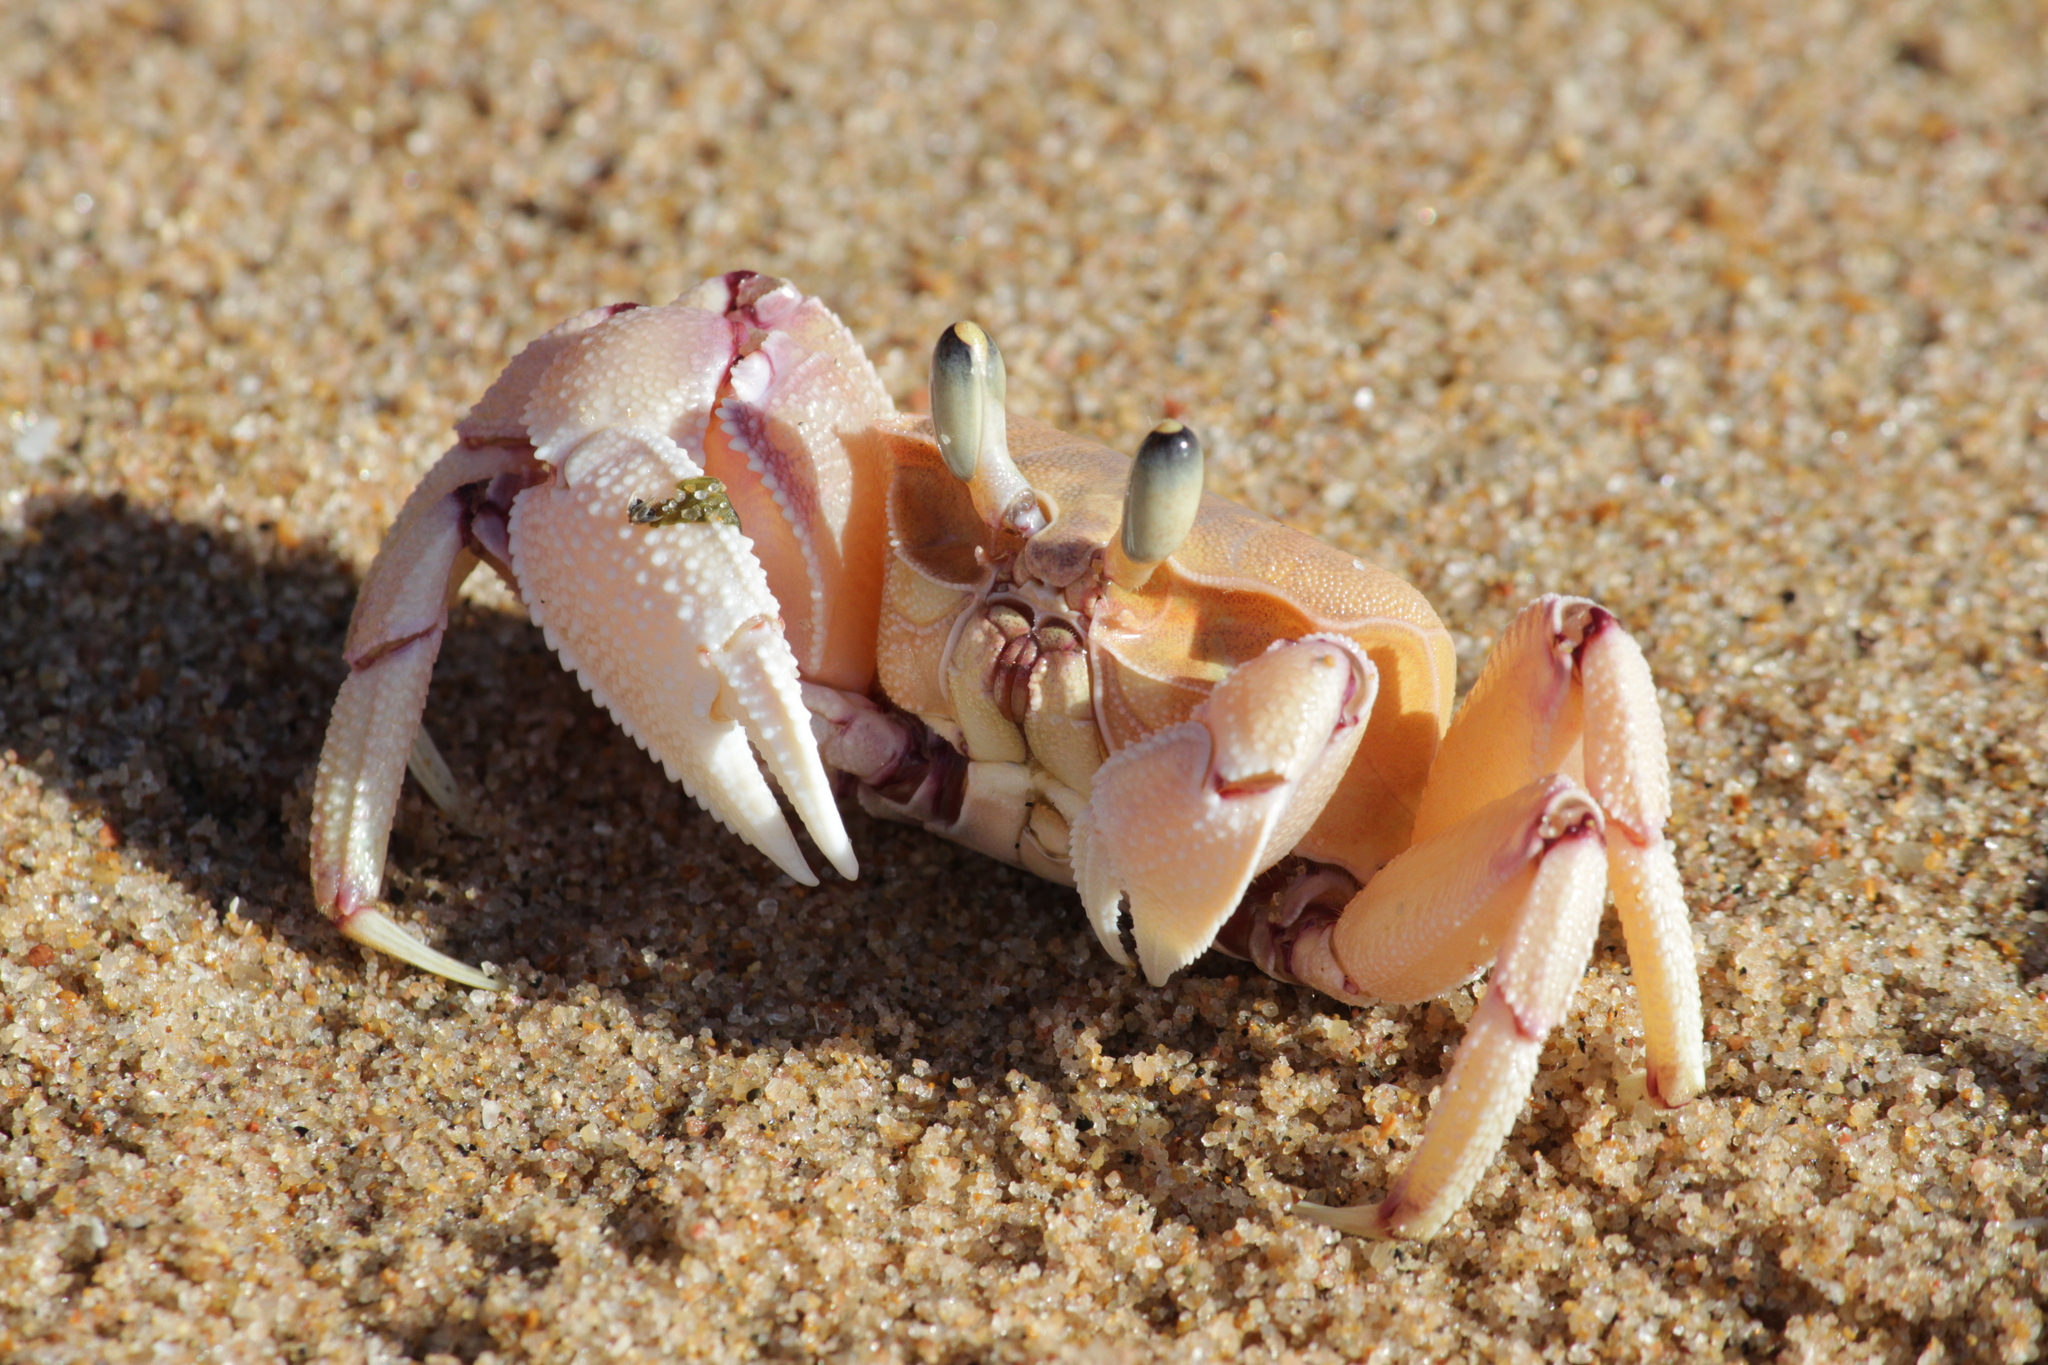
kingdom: Animalia
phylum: Arthropoda
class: Malacostraca
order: Decapoda
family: Ocypodidae
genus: Ocypode
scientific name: Ocypode ryderi
